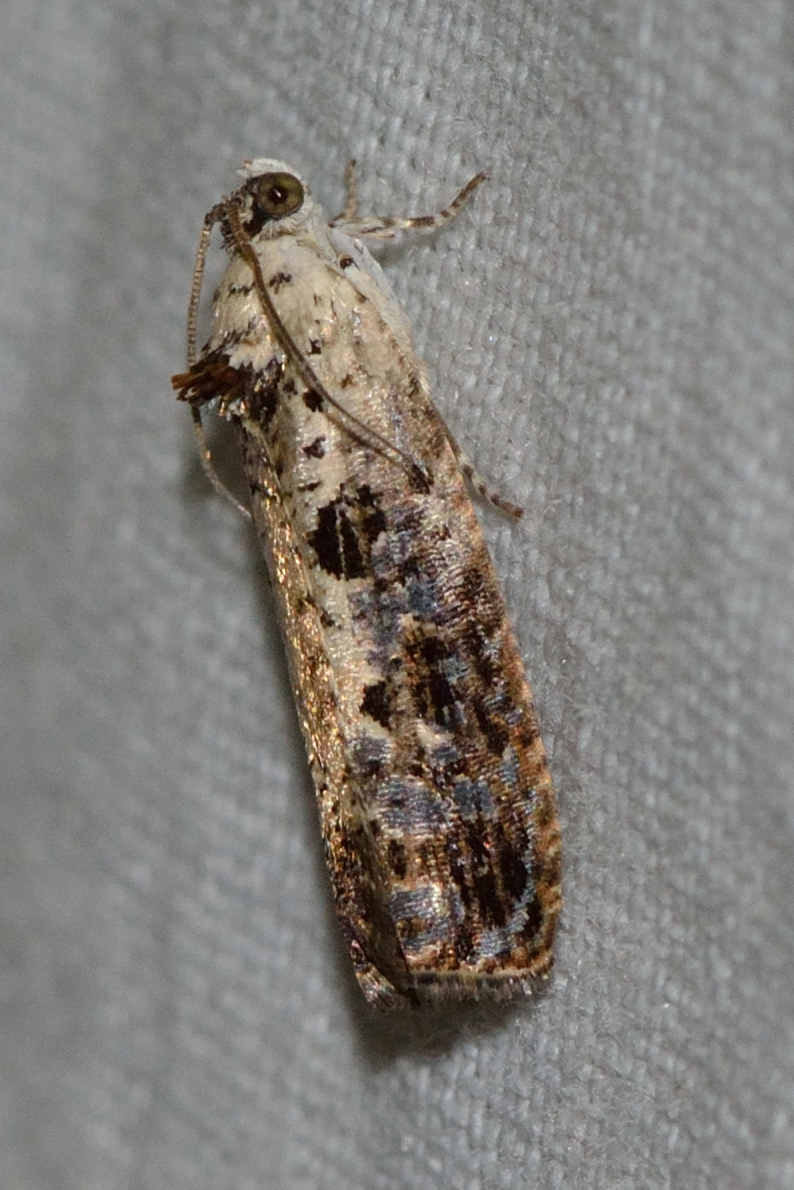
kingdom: Animalia
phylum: Arthropoda
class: Insecta
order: Lepidoptera
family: Tortricidae
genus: Hedya
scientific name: Hedya salicella
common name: Large tortricid moth
